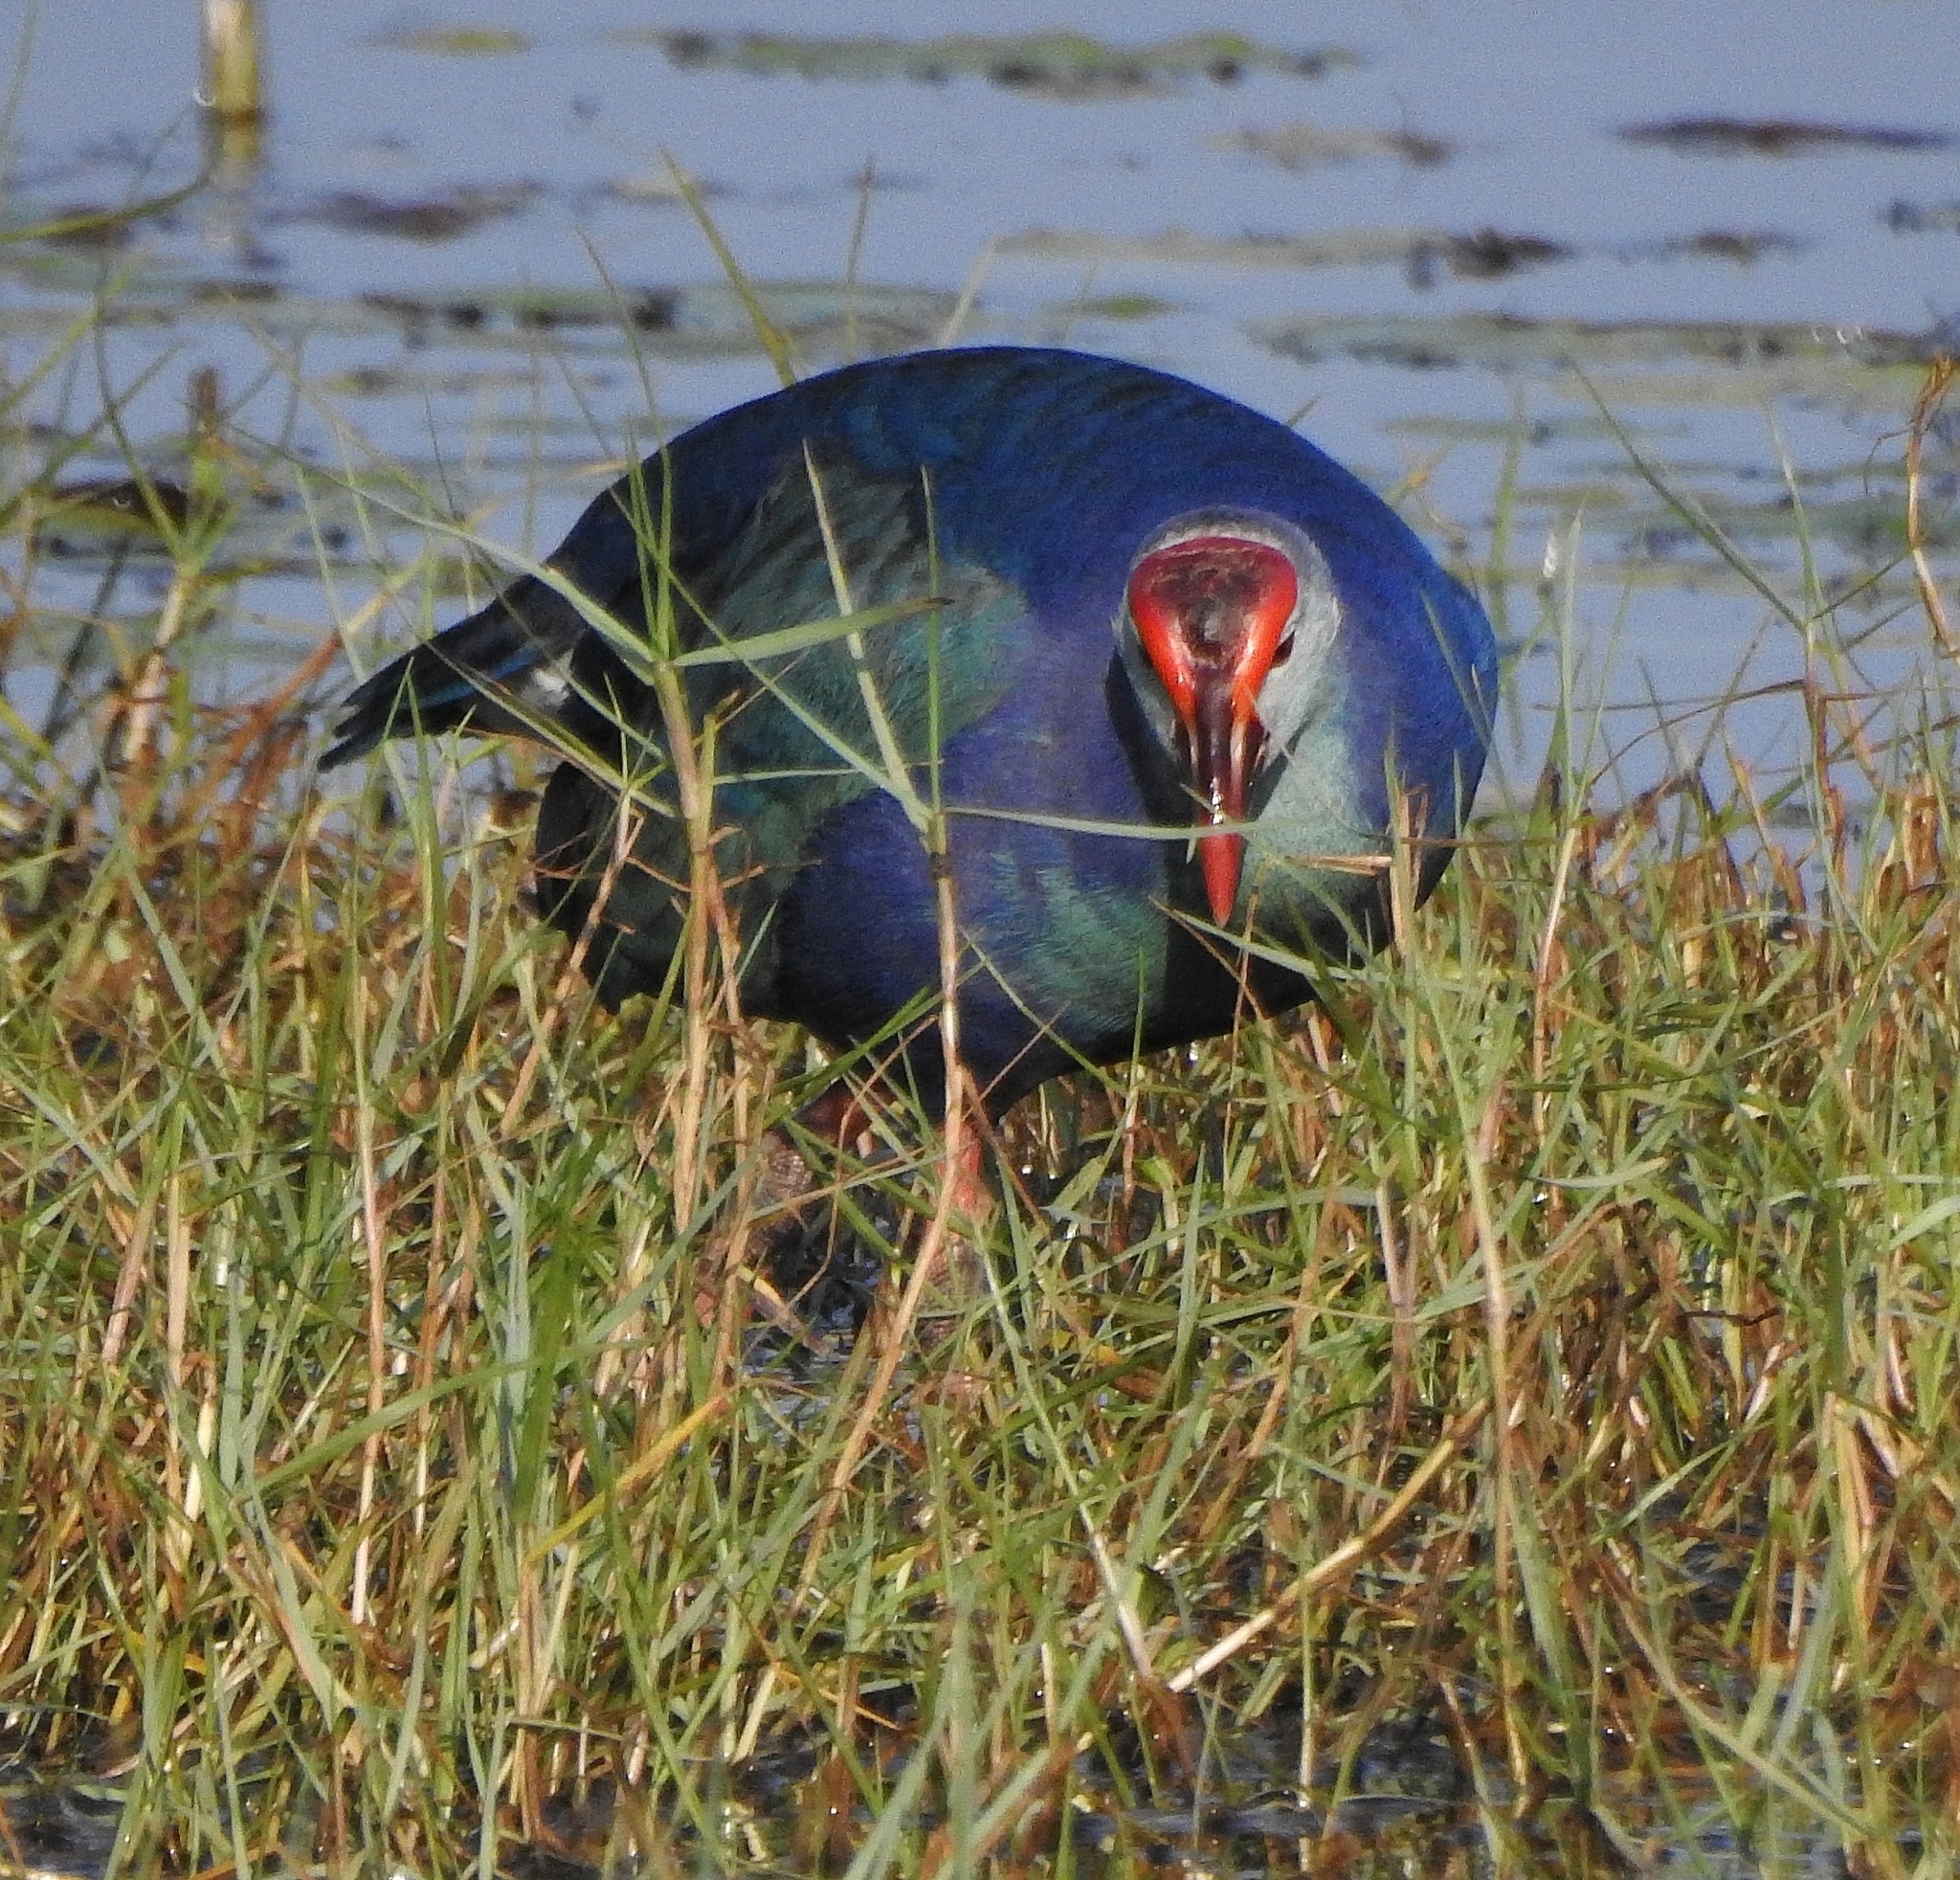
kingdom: Animalia
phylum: Chordata
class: Aves
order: Gruiformes
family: Rallidae
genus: Porphyrio
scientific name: Porphyrio porphyrio
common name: Purple swamphen
